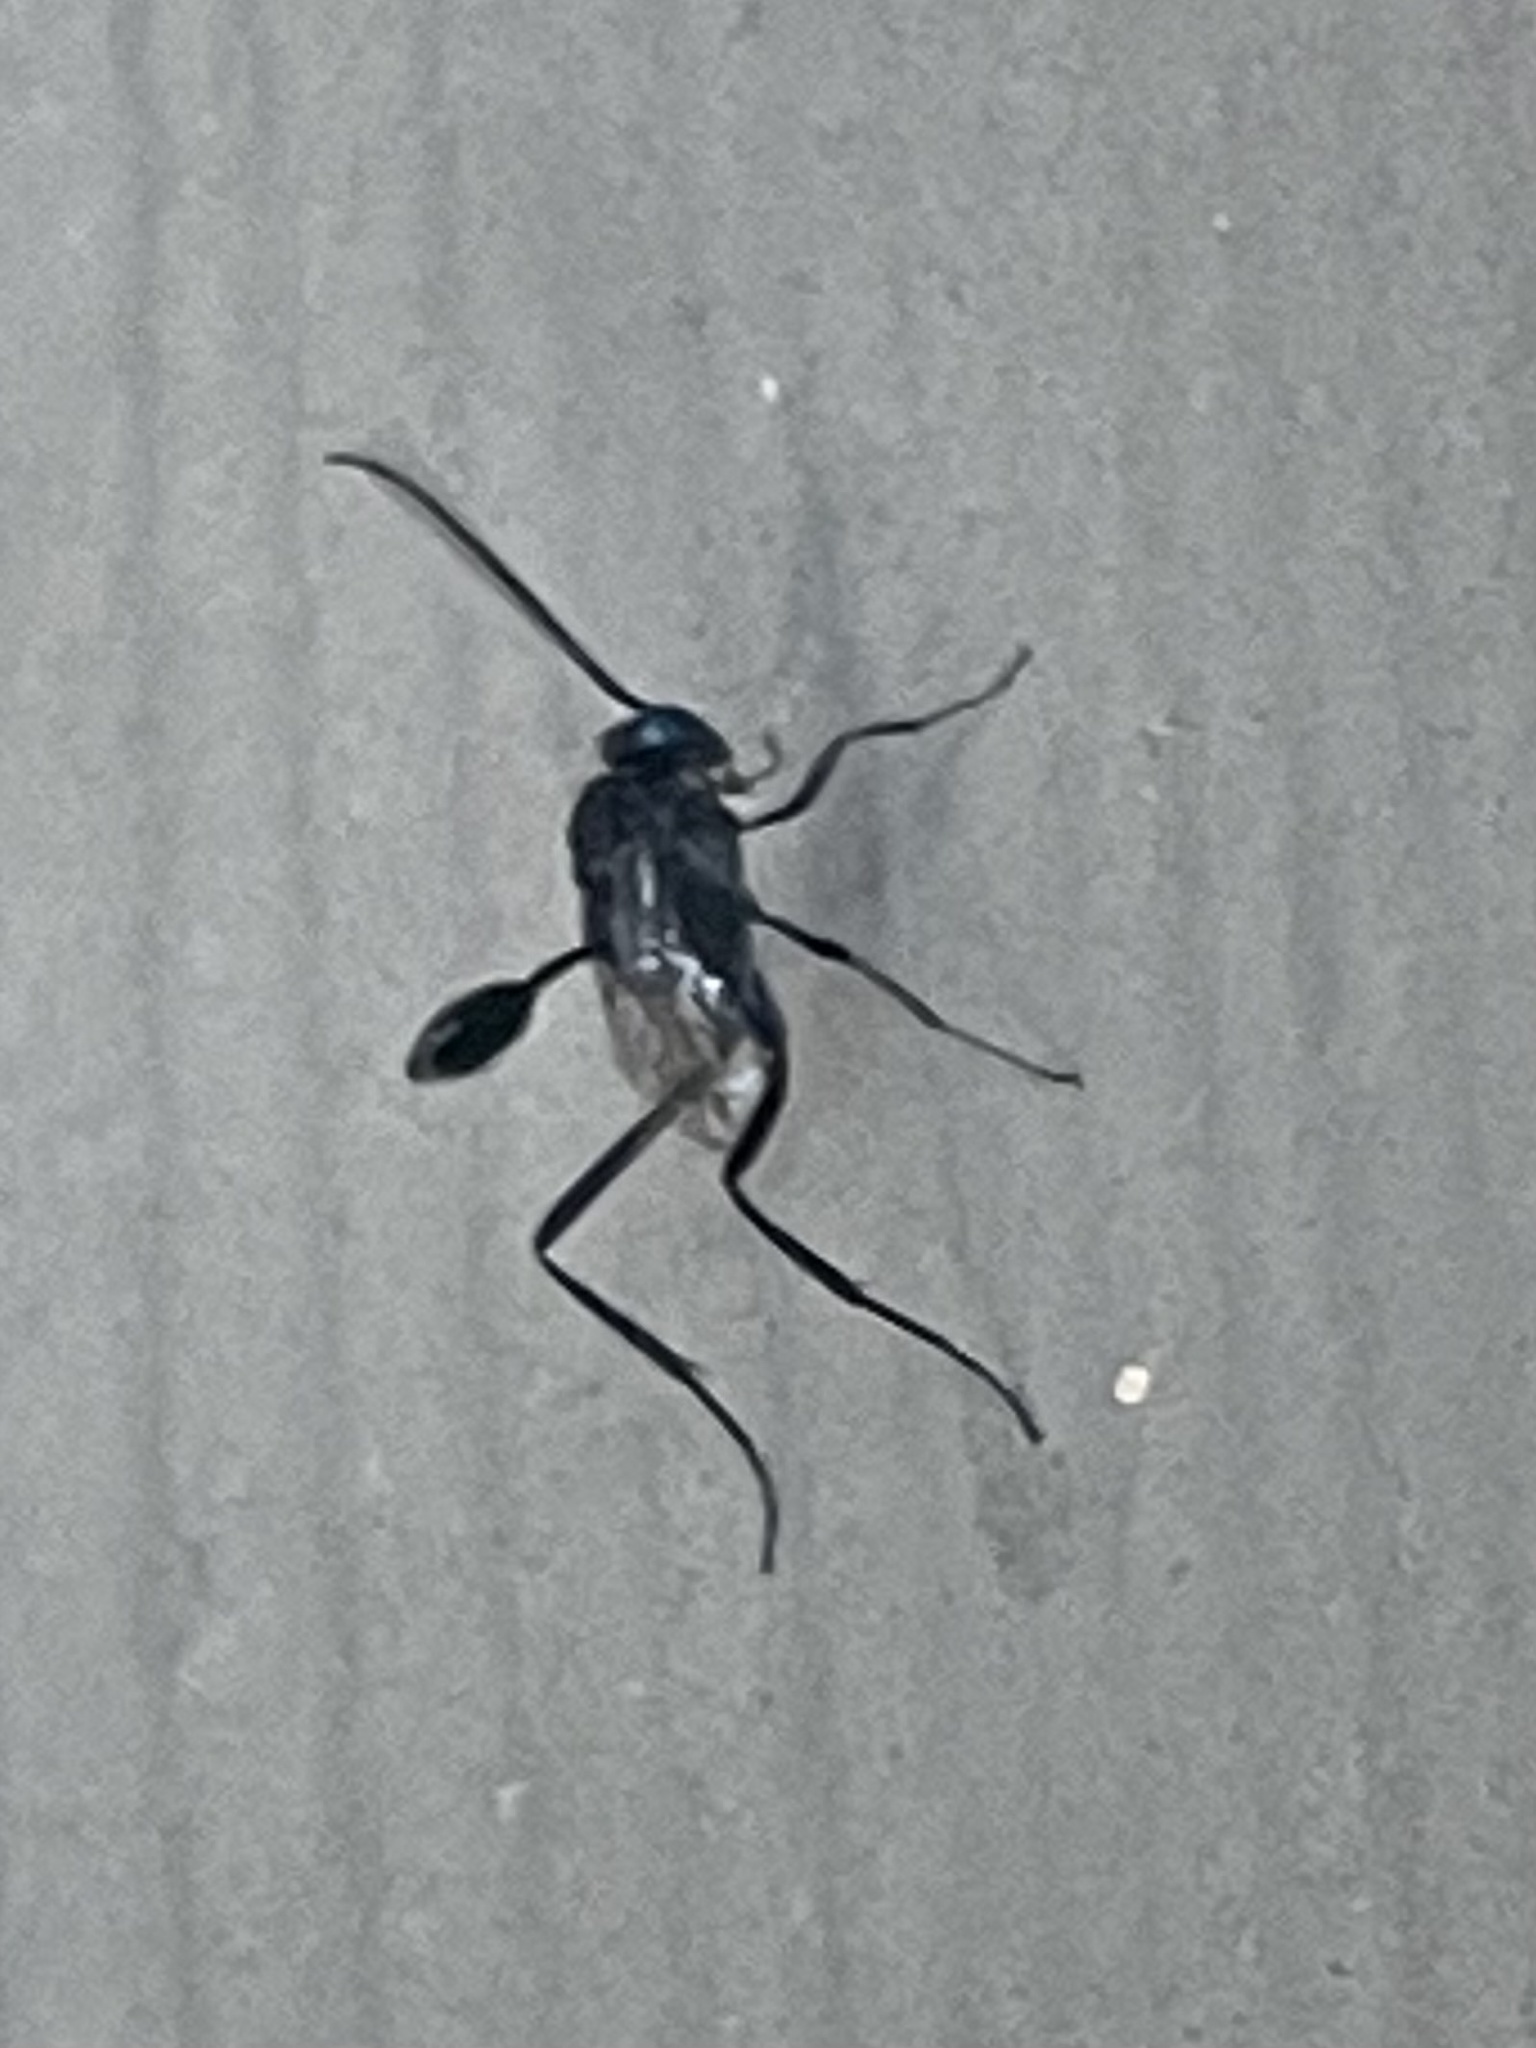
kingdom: Animalia
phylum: Arthropoda
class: Insecta
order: Hymenoptera
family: Evaniidae
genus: Evania
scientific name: Evania appendigaster
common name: Ensign wasp
